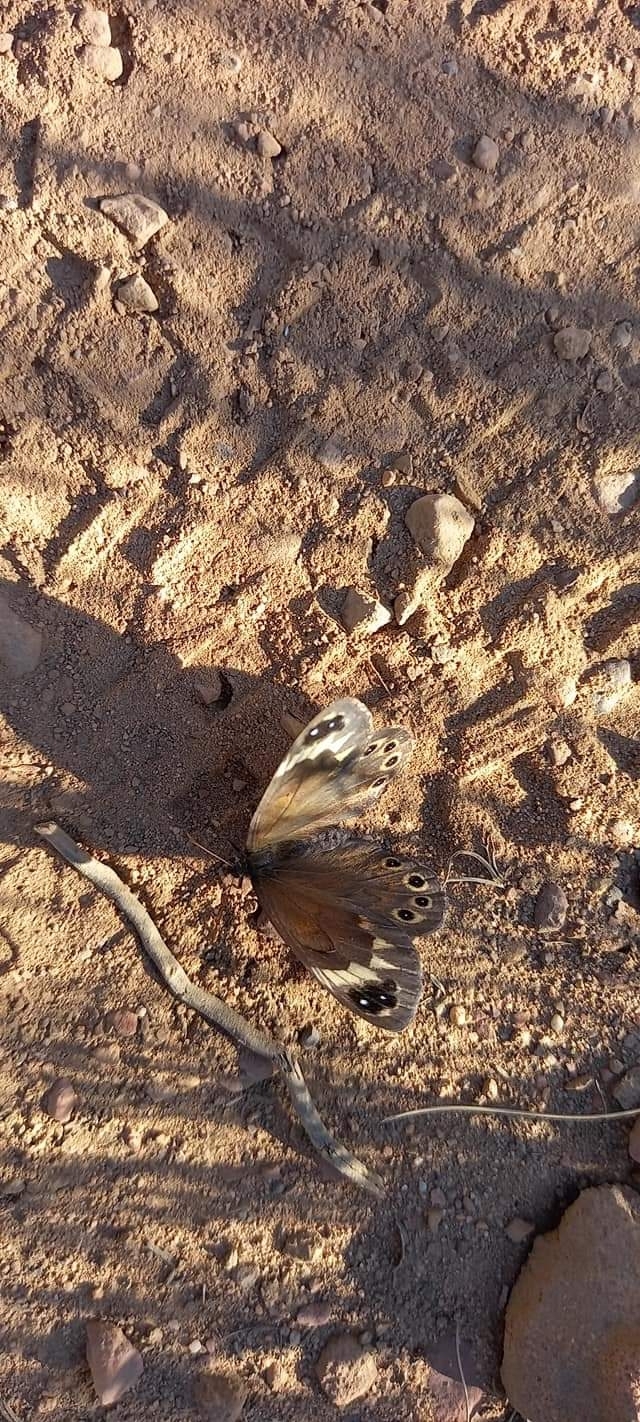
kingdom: Animalia
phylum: Arthropoda
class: Insecta
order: Lepidoptera
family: Nymphalidae
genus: Torynesis
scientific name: Torynesis mintha
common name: Mintha widow
